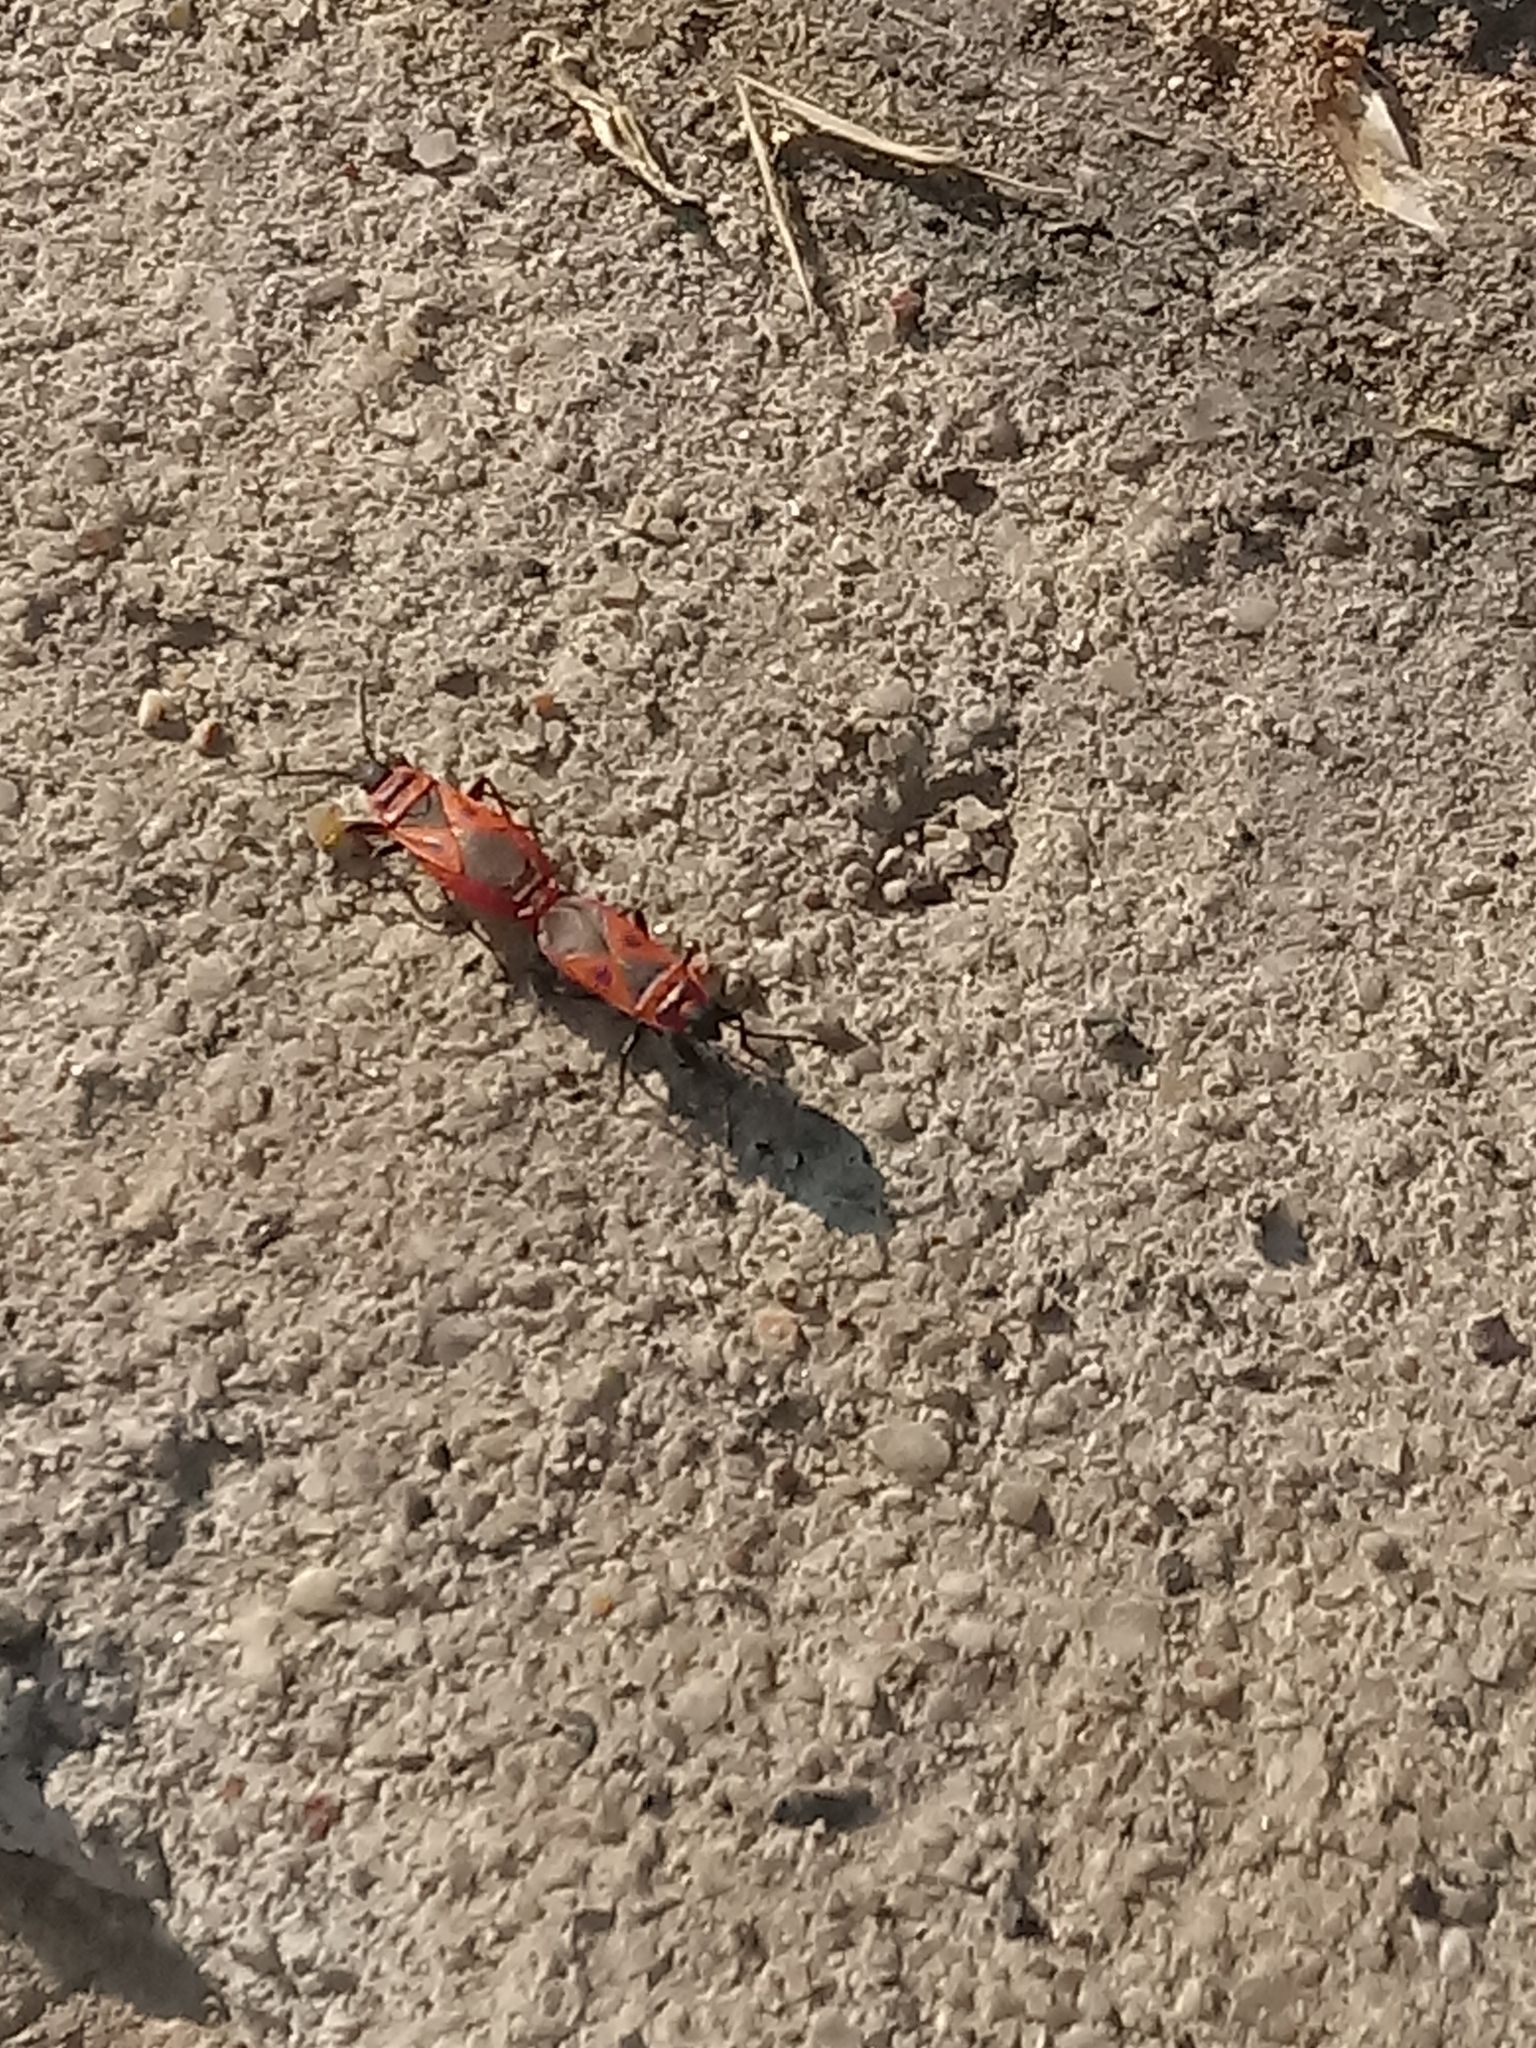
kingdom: Animalia
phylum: Arthropoda
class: Insecta
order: Hemiptera
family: Pyrrhocoridae
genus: Scantius
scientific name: Scantius aegyptius
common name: Red bug
